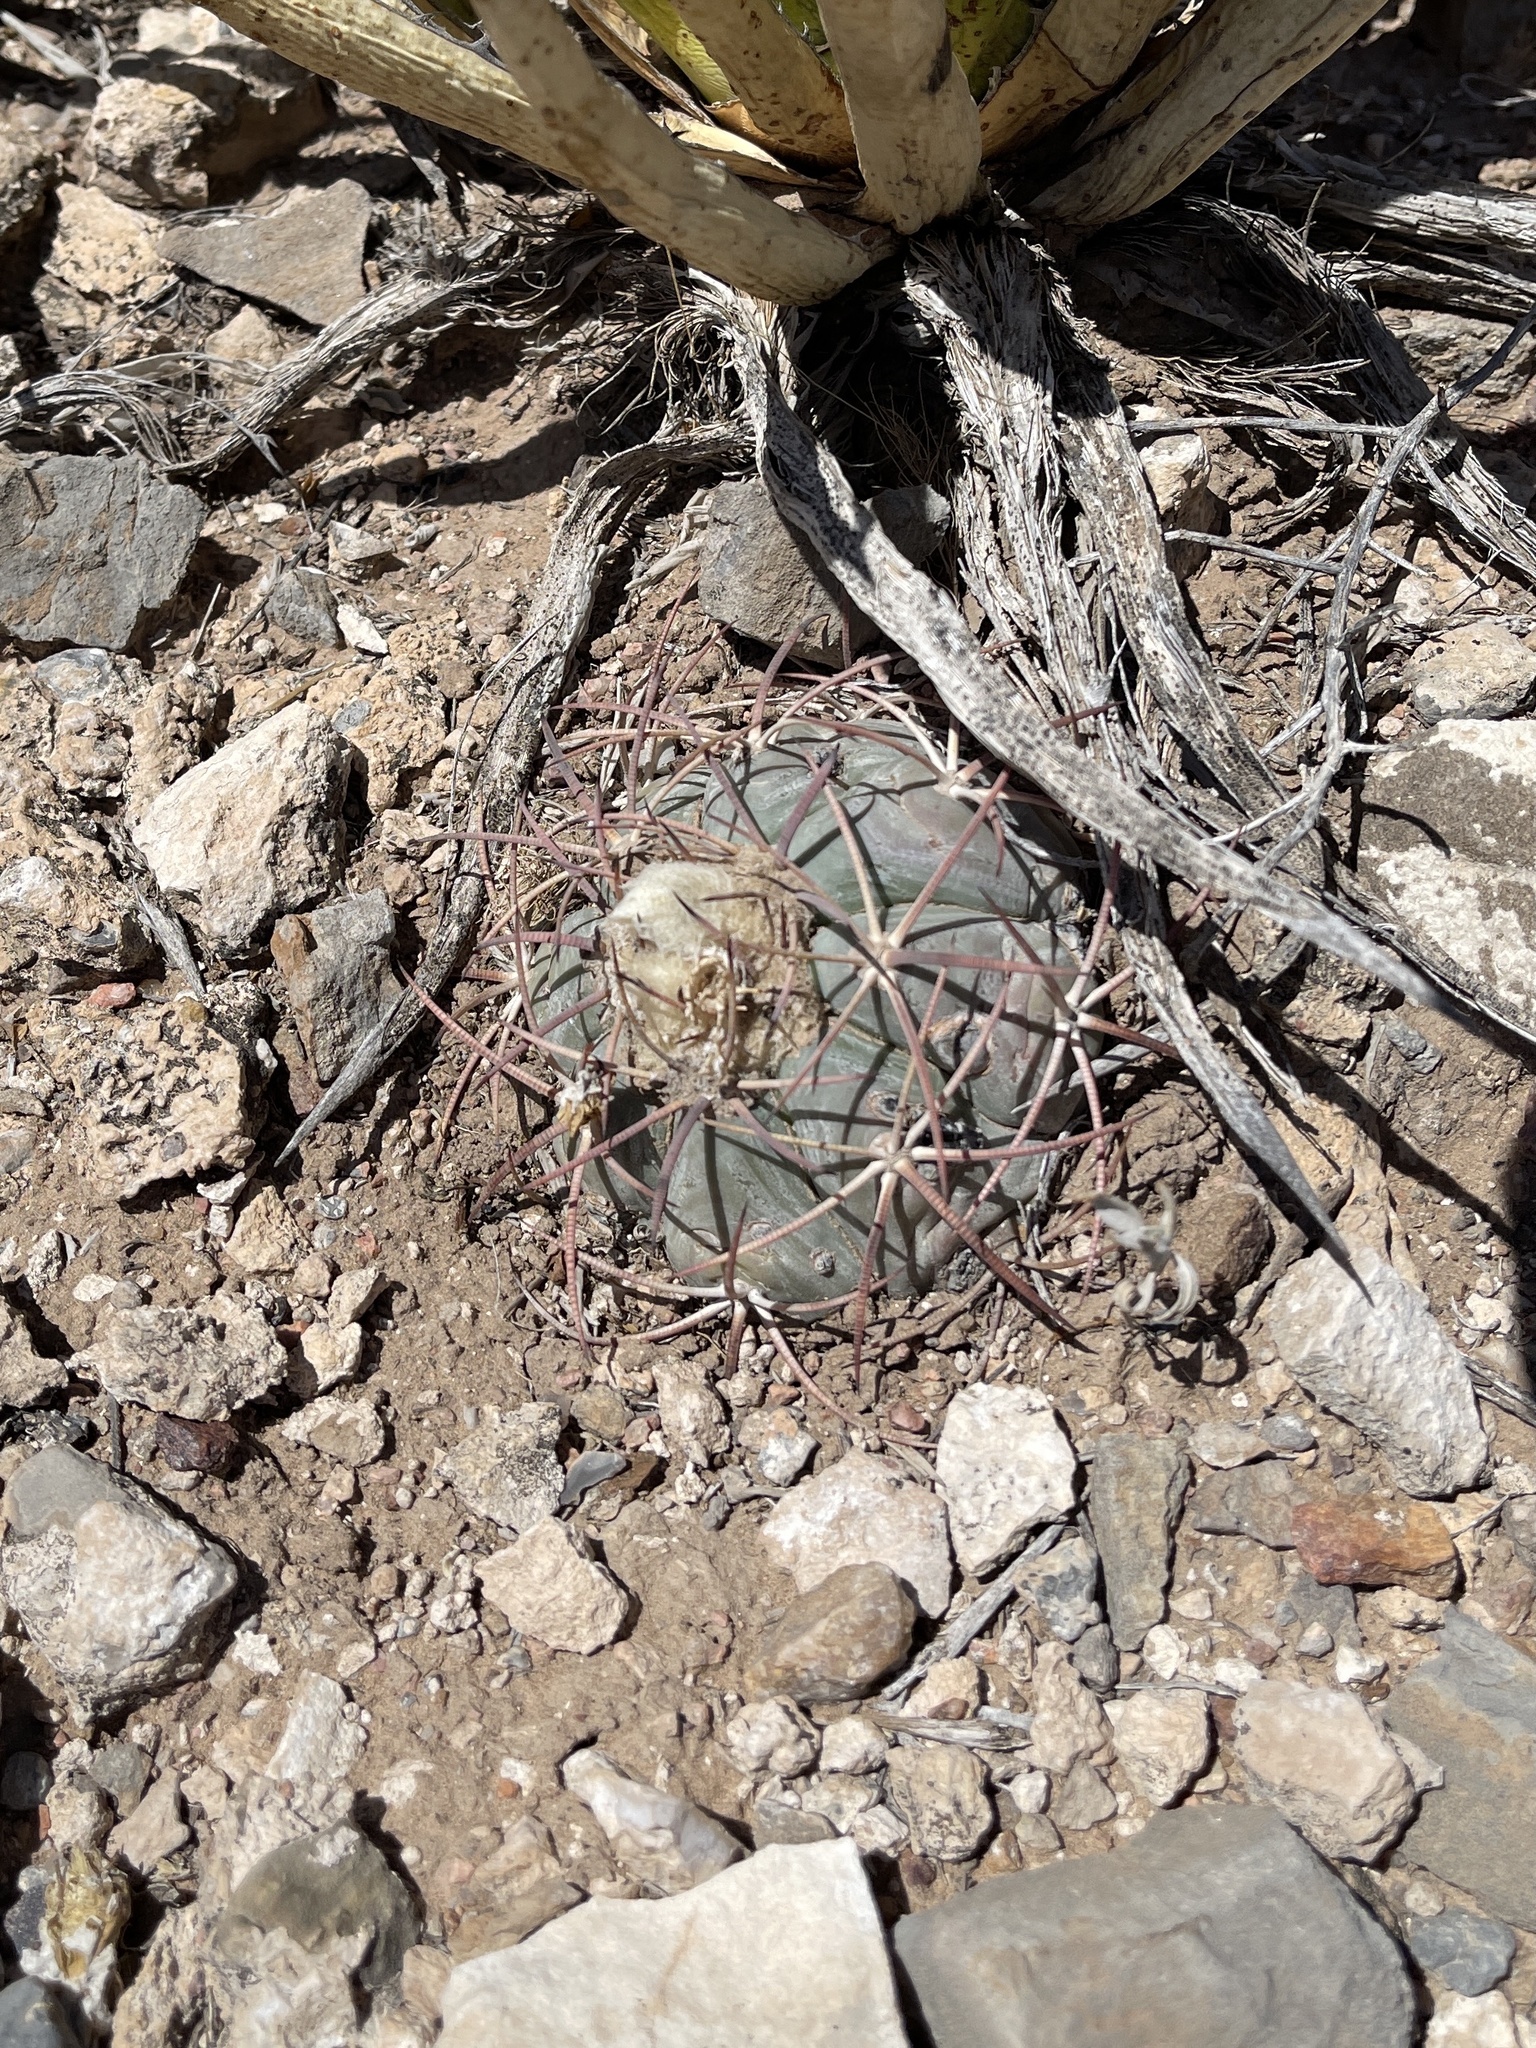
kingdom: Plantae
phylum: Tracheophyta
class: Magnoliopsida
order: Caryophyllales
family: Cactaceae
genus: Echinocactus
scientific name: Echinocactus horizonthalonius
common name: Devilshead
